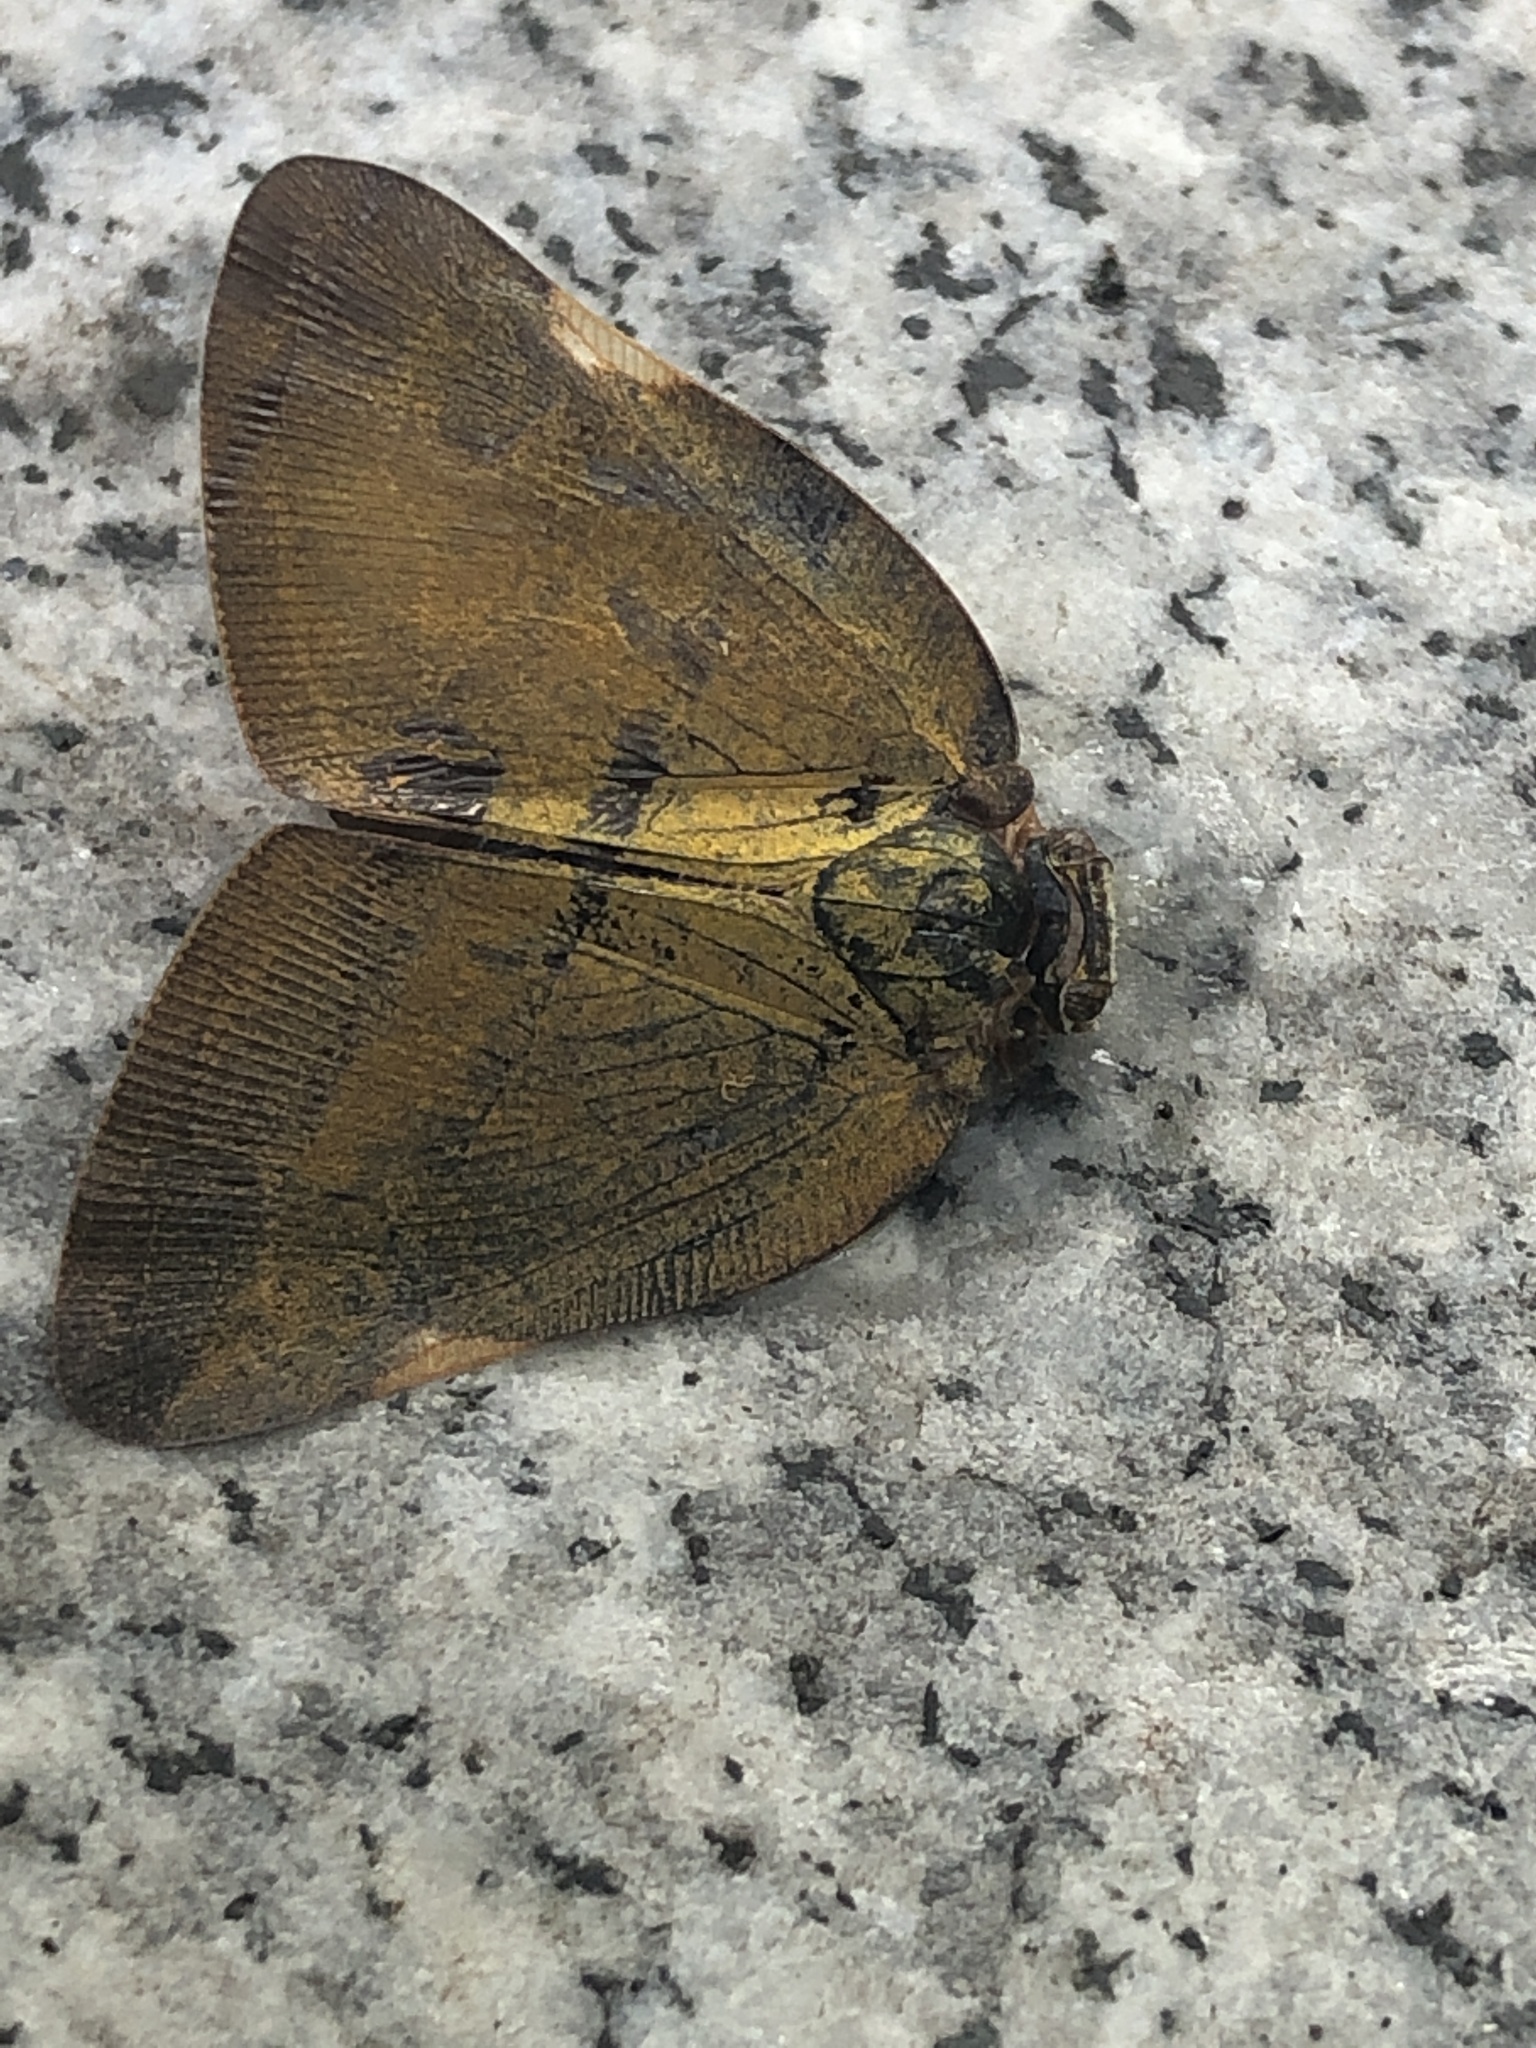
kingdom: Animalia
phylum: Arthropoda
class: Insecta
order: Hemiptera
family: Ricaniidae
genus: Ricanula
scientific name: Ricanula sublimata
